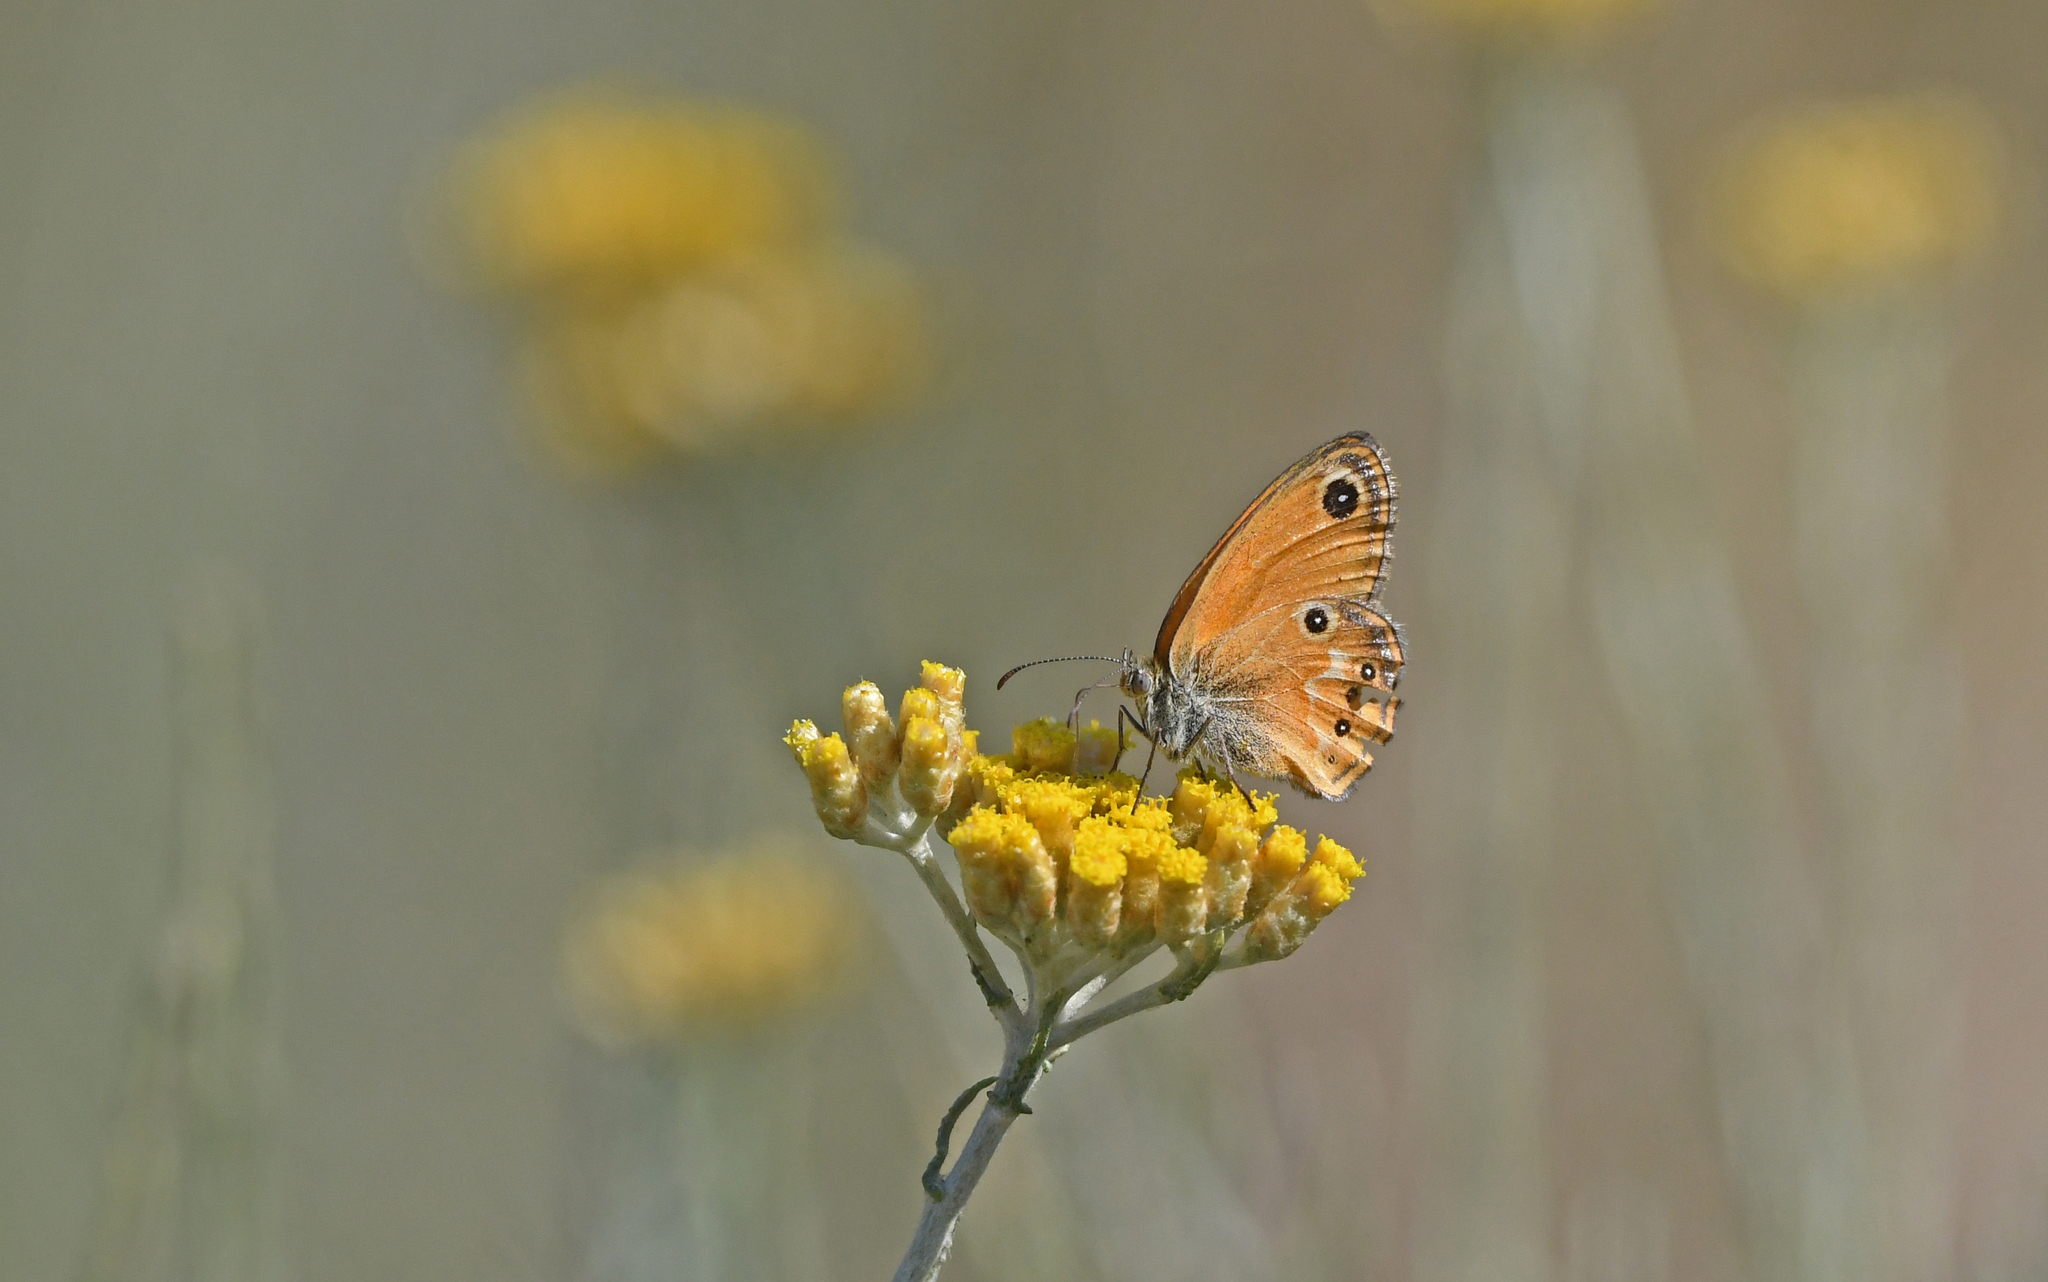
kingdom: Animalia
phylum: Arthropoda
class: Insecta
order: Lepidoptera
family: Nymphalidae
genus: Coenonympha
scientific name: Coenonympha corinna
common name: Corsican heath
